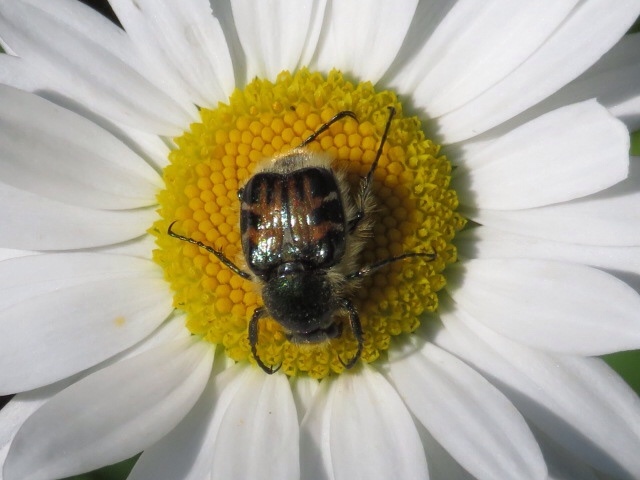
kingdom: Animalia
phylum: Arthropoda
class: Insecta
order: Coleoptera
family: Scarabaeidae
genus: Trichiotinus
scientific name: Trichiotinus viridans
